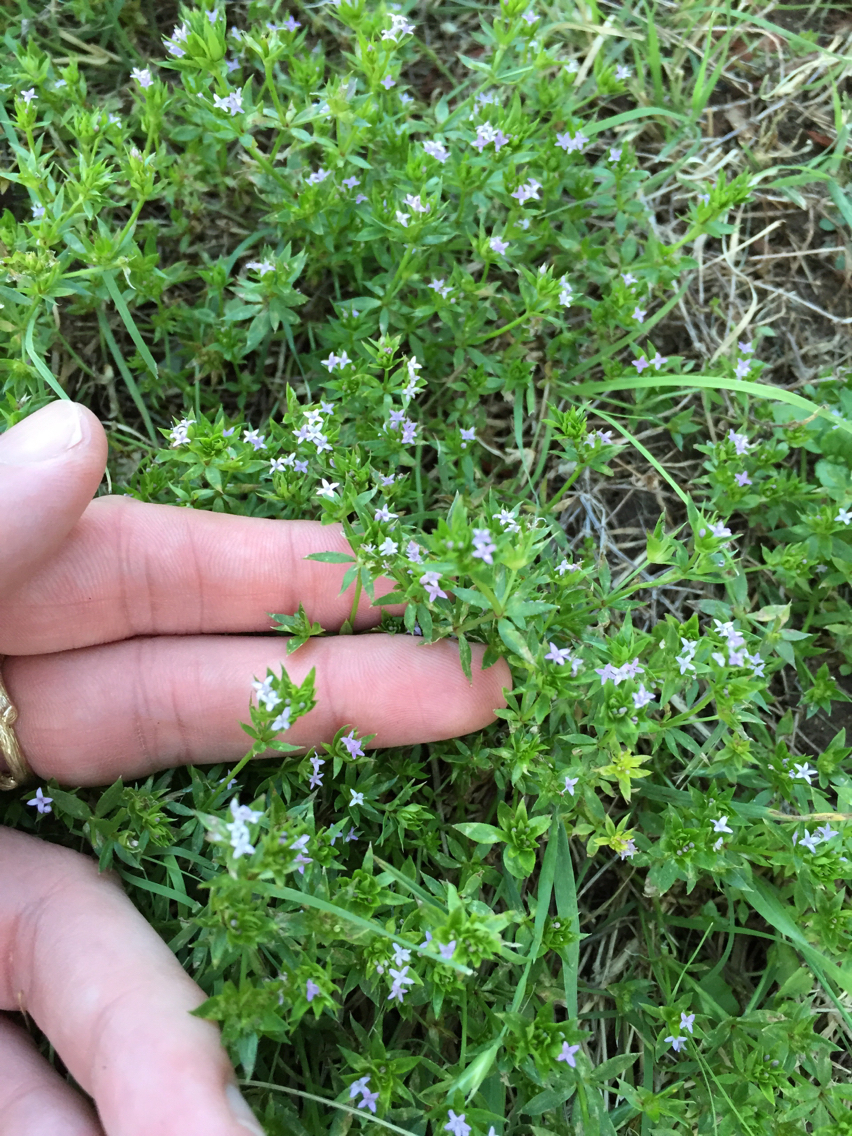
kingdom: Plantae
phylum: Tracheophyta
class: Magnoliopsida
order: Gentianales
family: Rubiaceae
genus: Sherardia
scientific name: Sherardia arvensis
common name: Field madder
